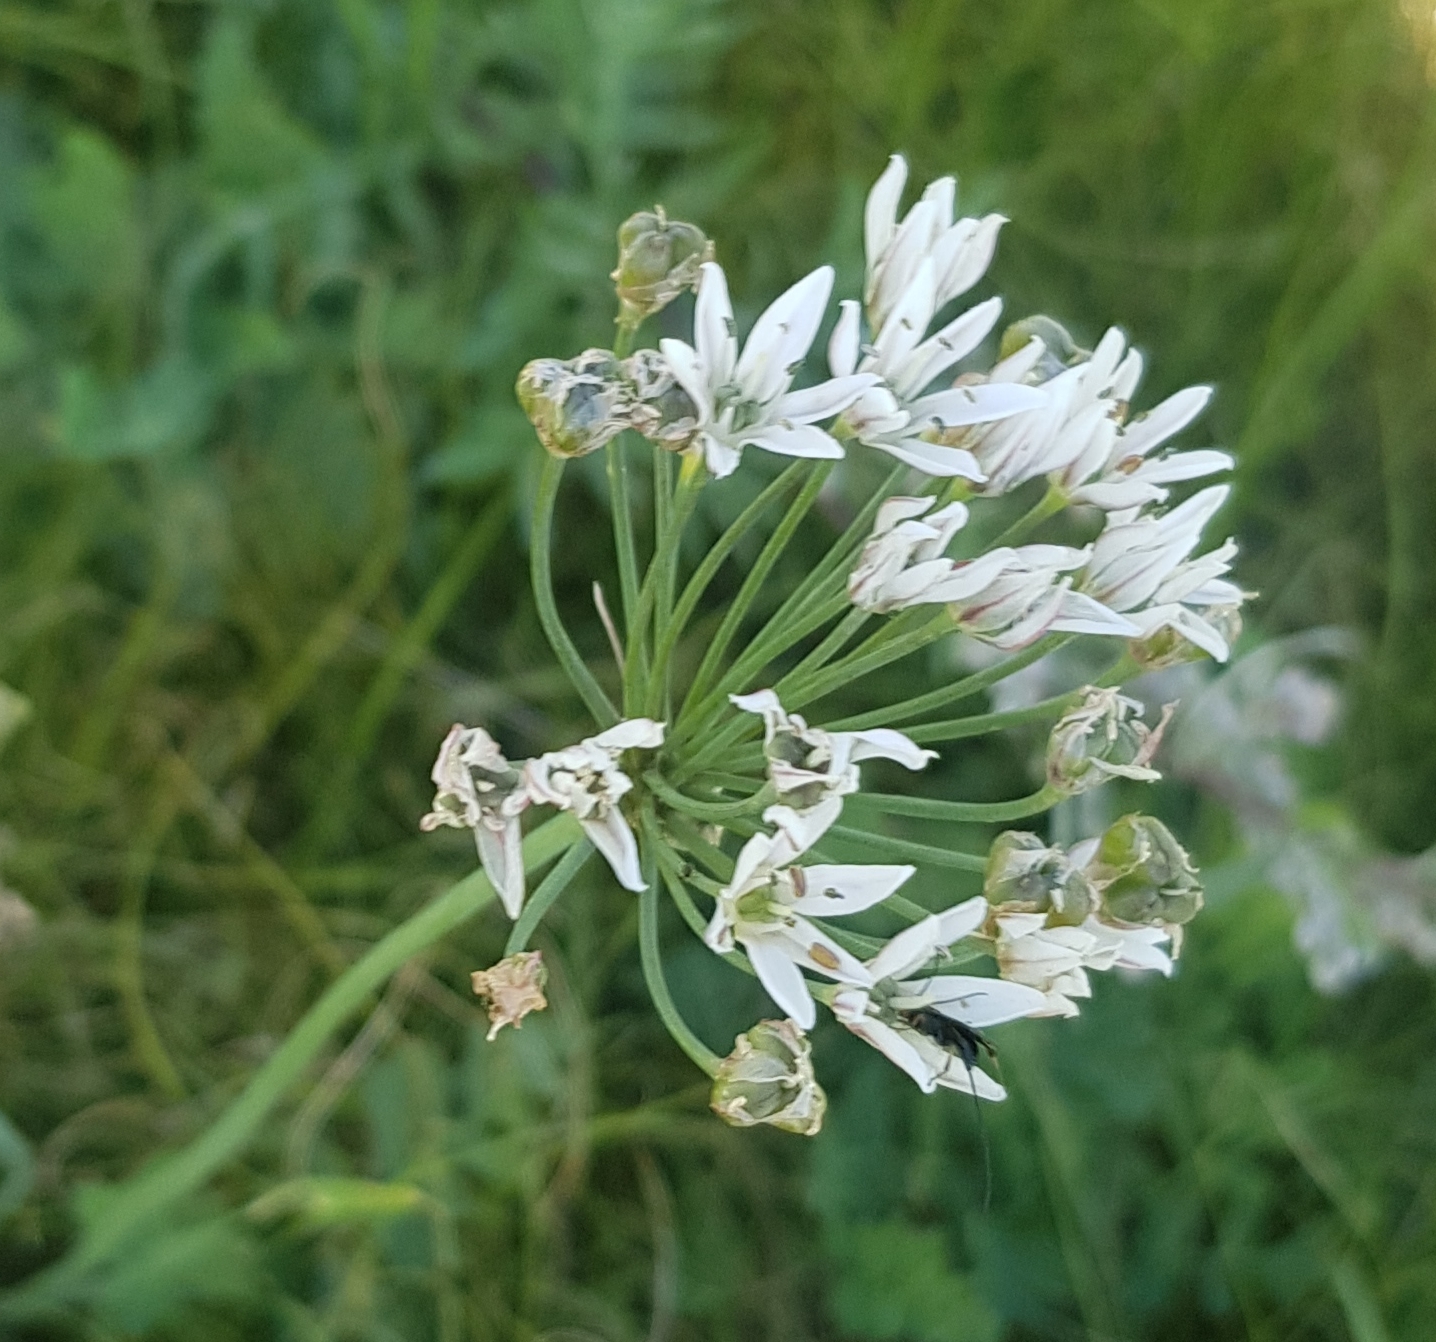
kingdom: Plantae
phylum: Tracheophyta
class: Liliopsida
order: Asparagales
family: Amaryllidaceae
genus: Allium
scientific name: Allium ramosum
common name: Fragrant garlic
